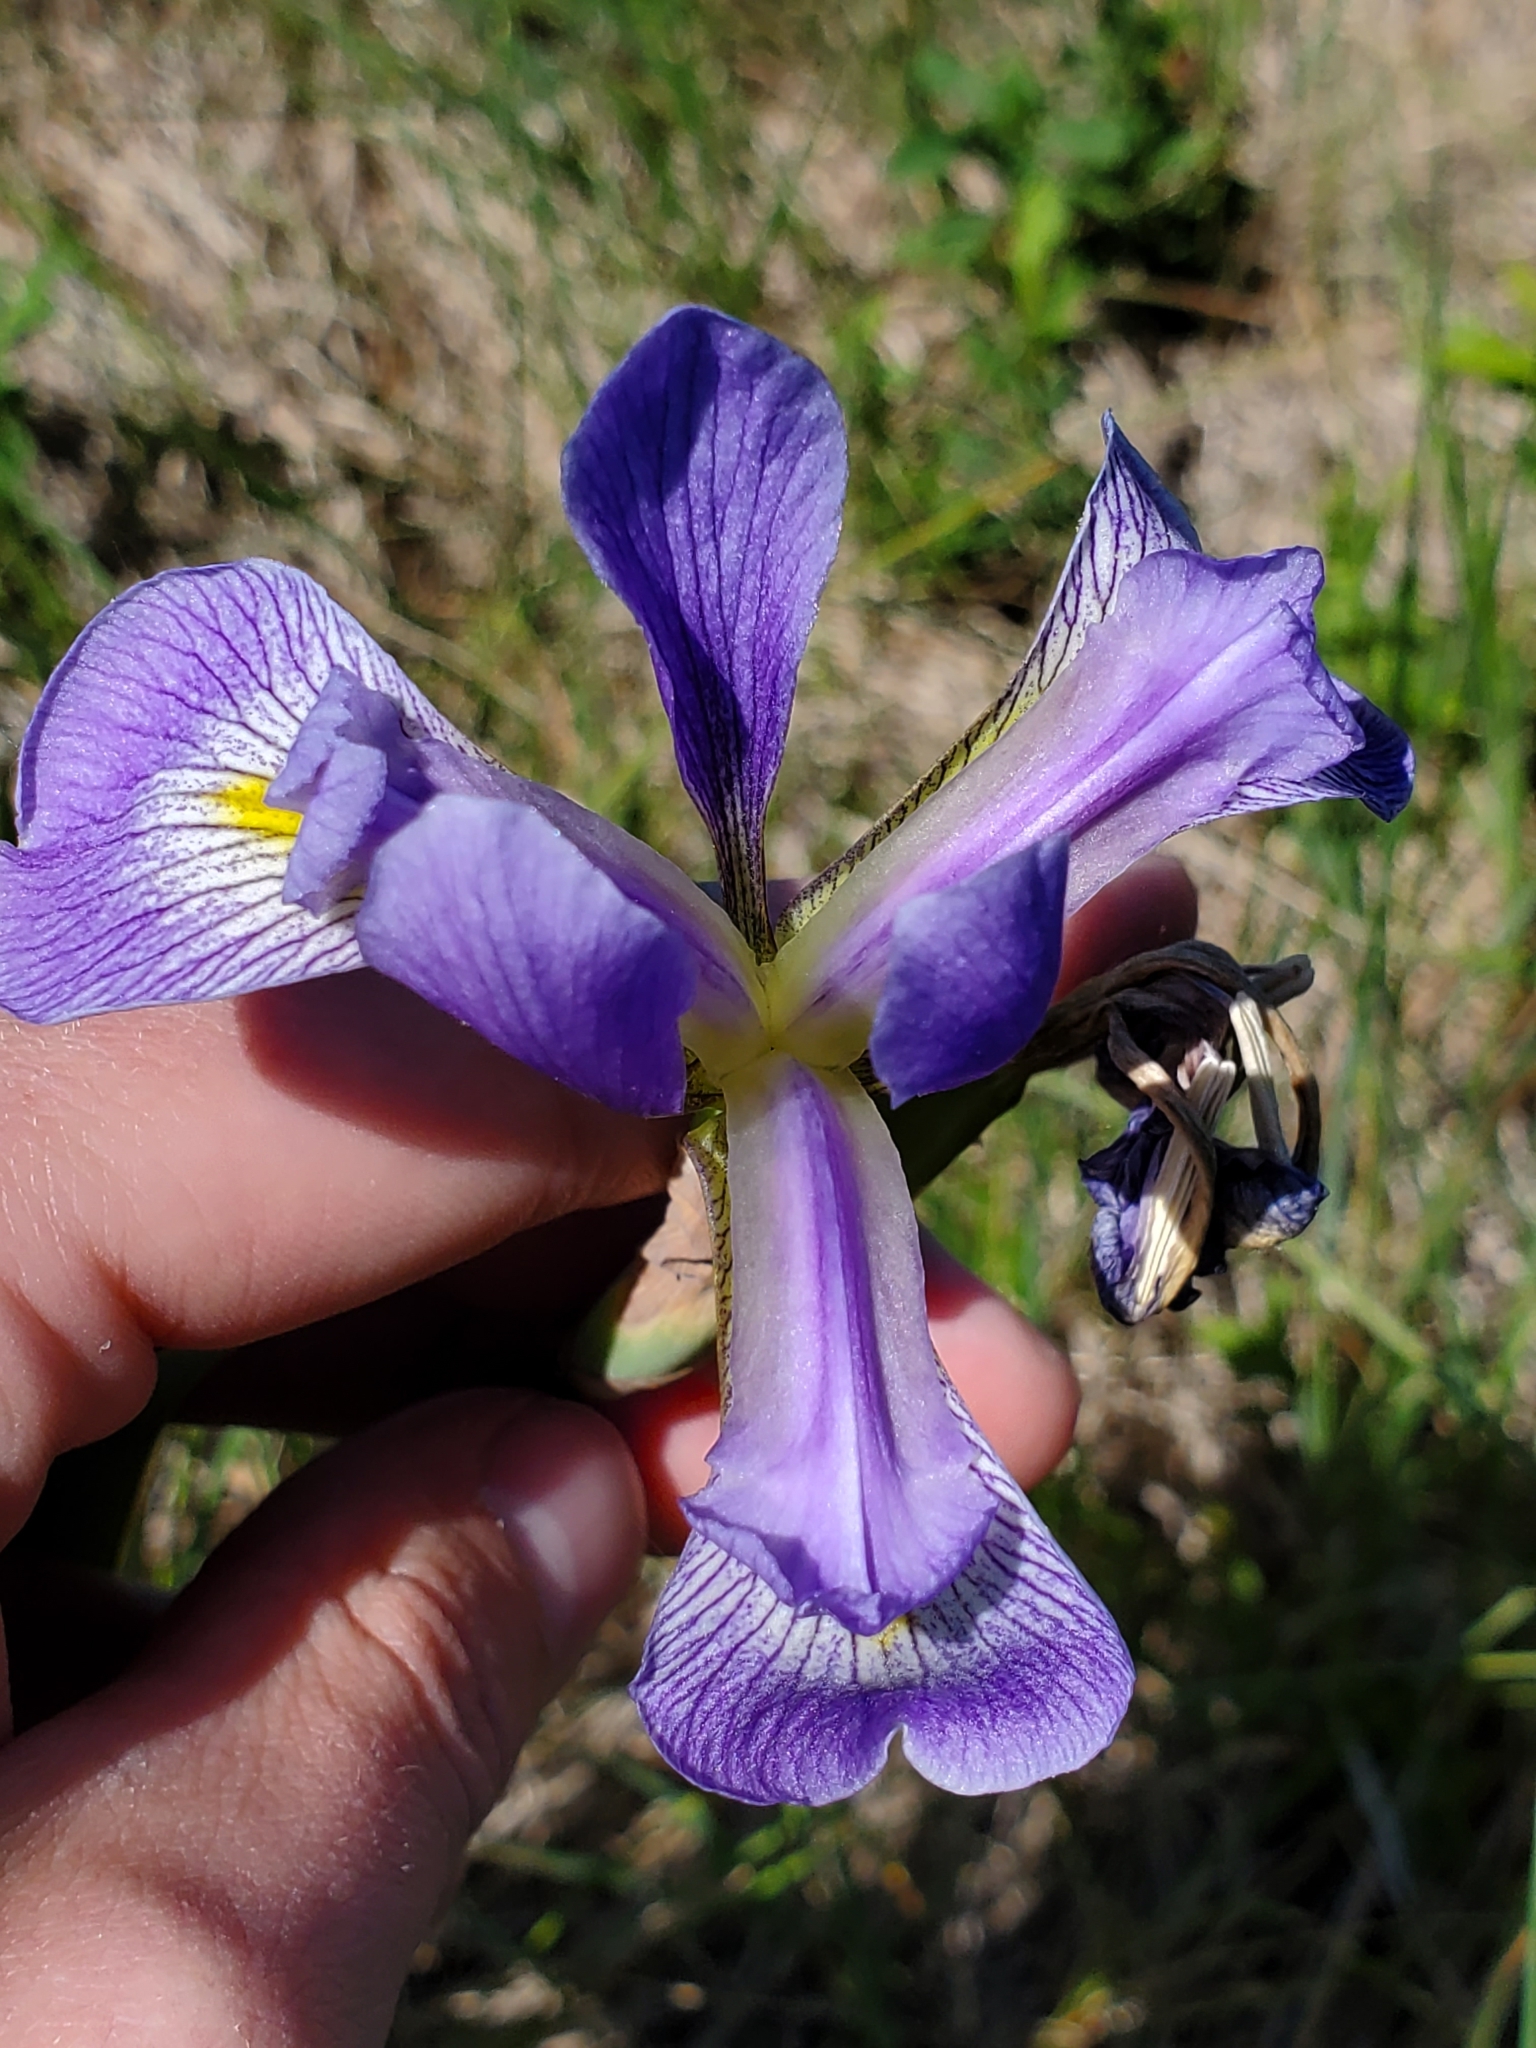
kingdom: Plantae
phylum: Tracheophyta
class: Liliopsida
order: Asparagales
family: Iridaceae
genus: Iris
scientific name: Iris virginica
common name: Southern blue flag
